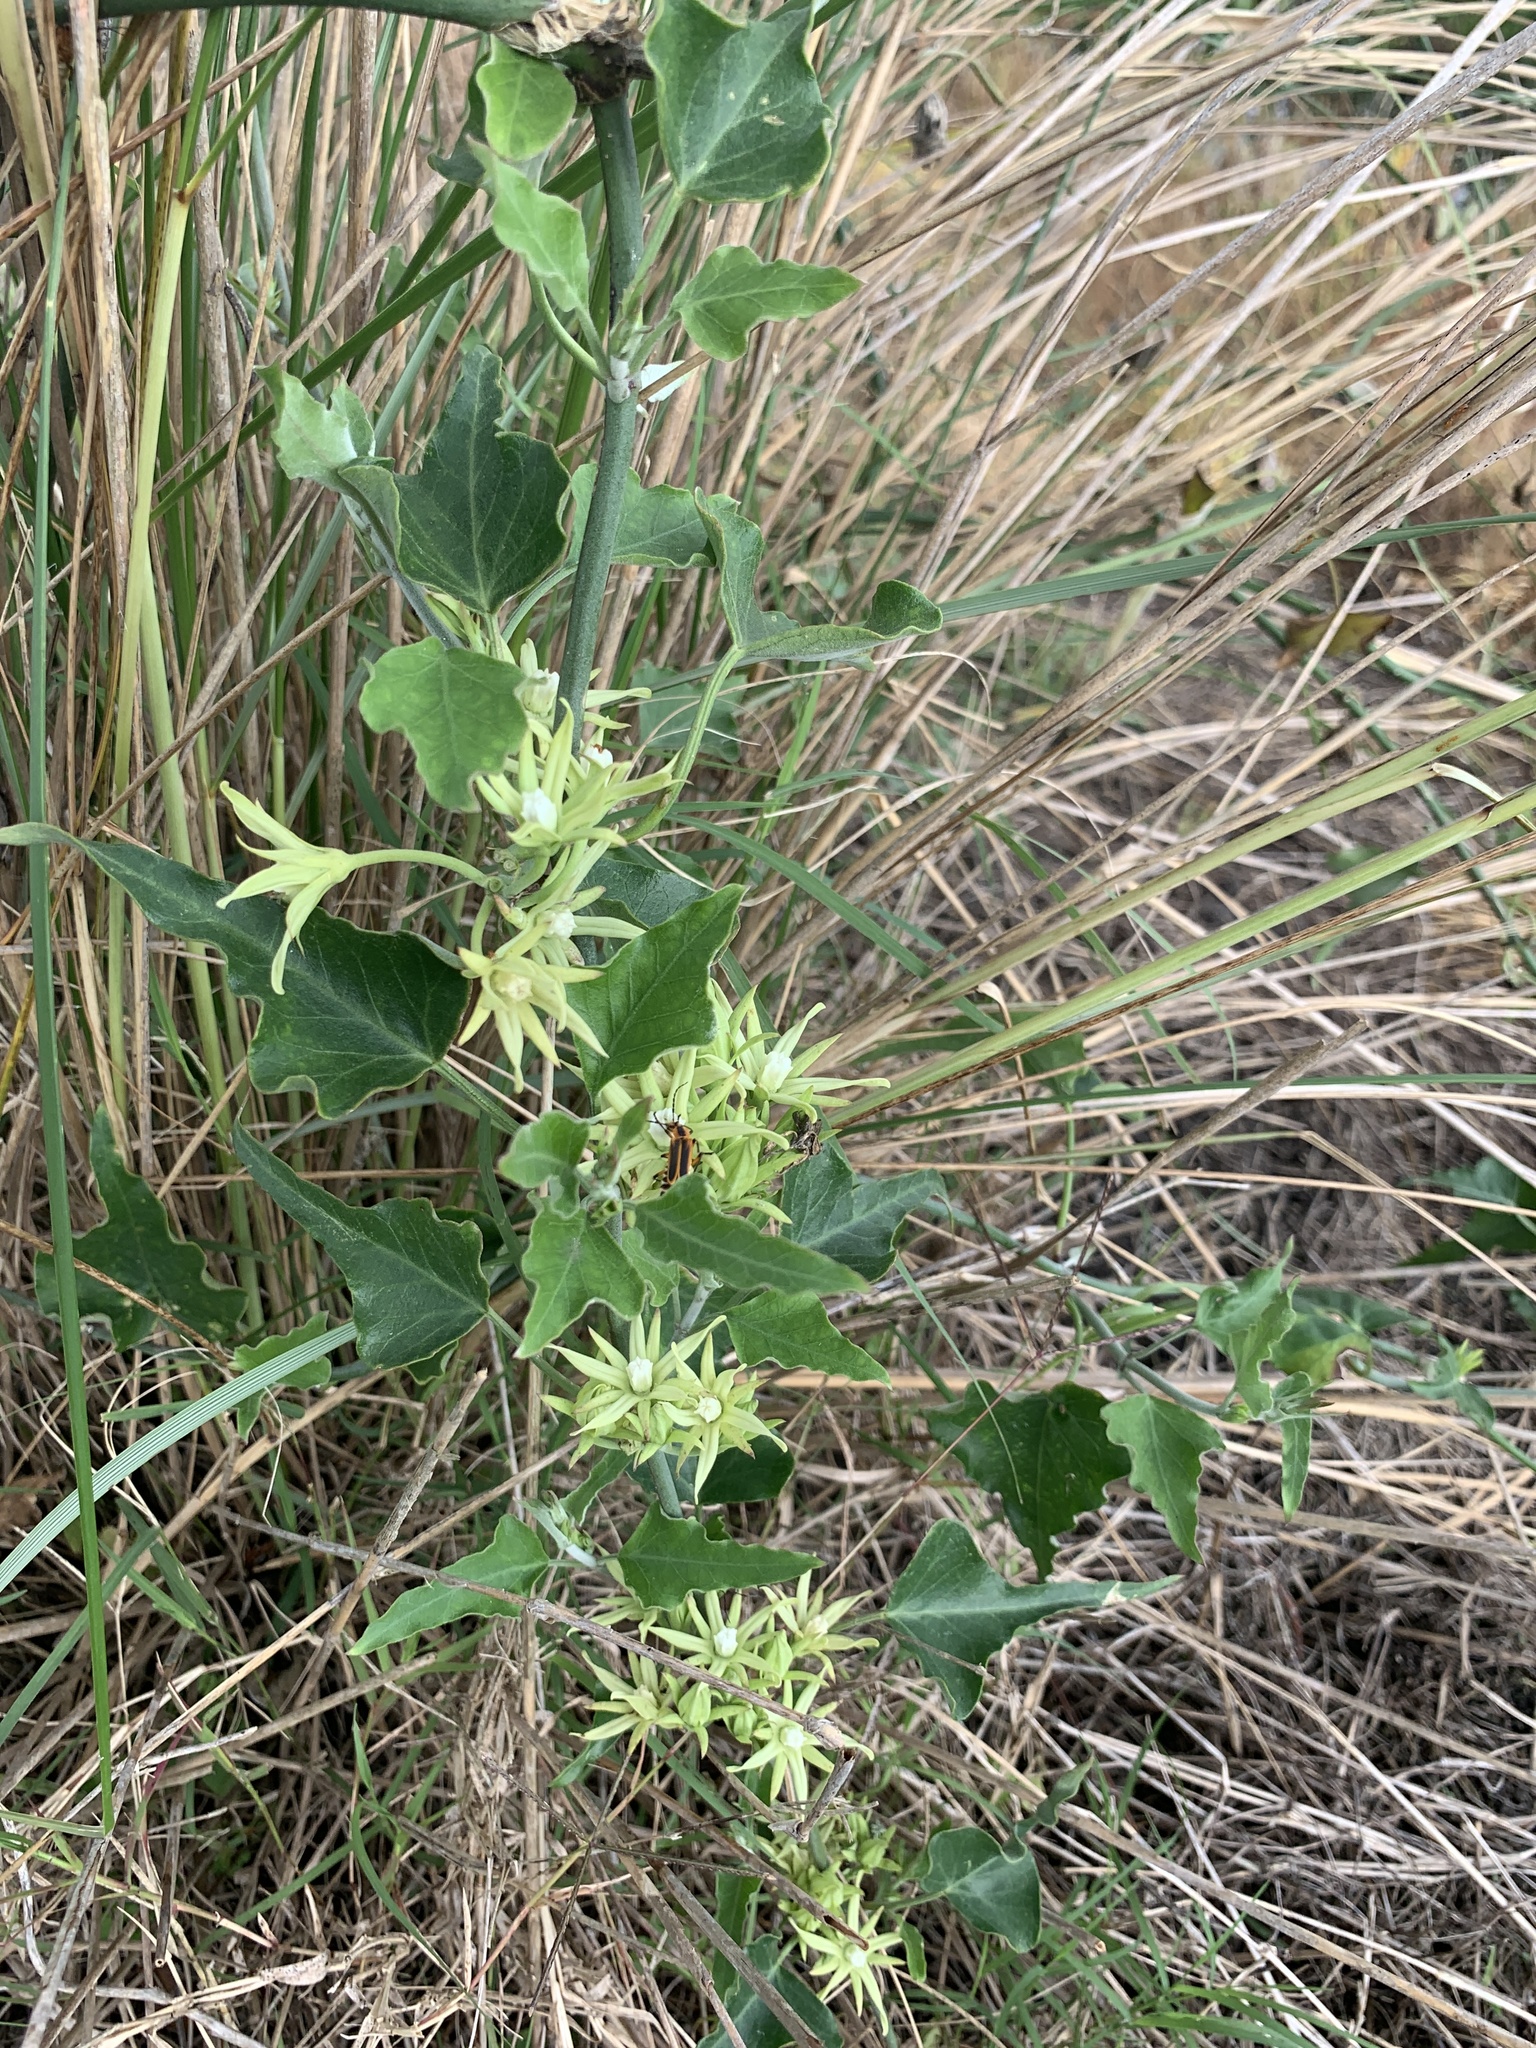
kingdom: Plantae
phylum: Tracheophyta
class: Magnoliopsida
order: Gentianales
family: Apocynaceae
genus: Araujia
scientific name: Araujia odorata
